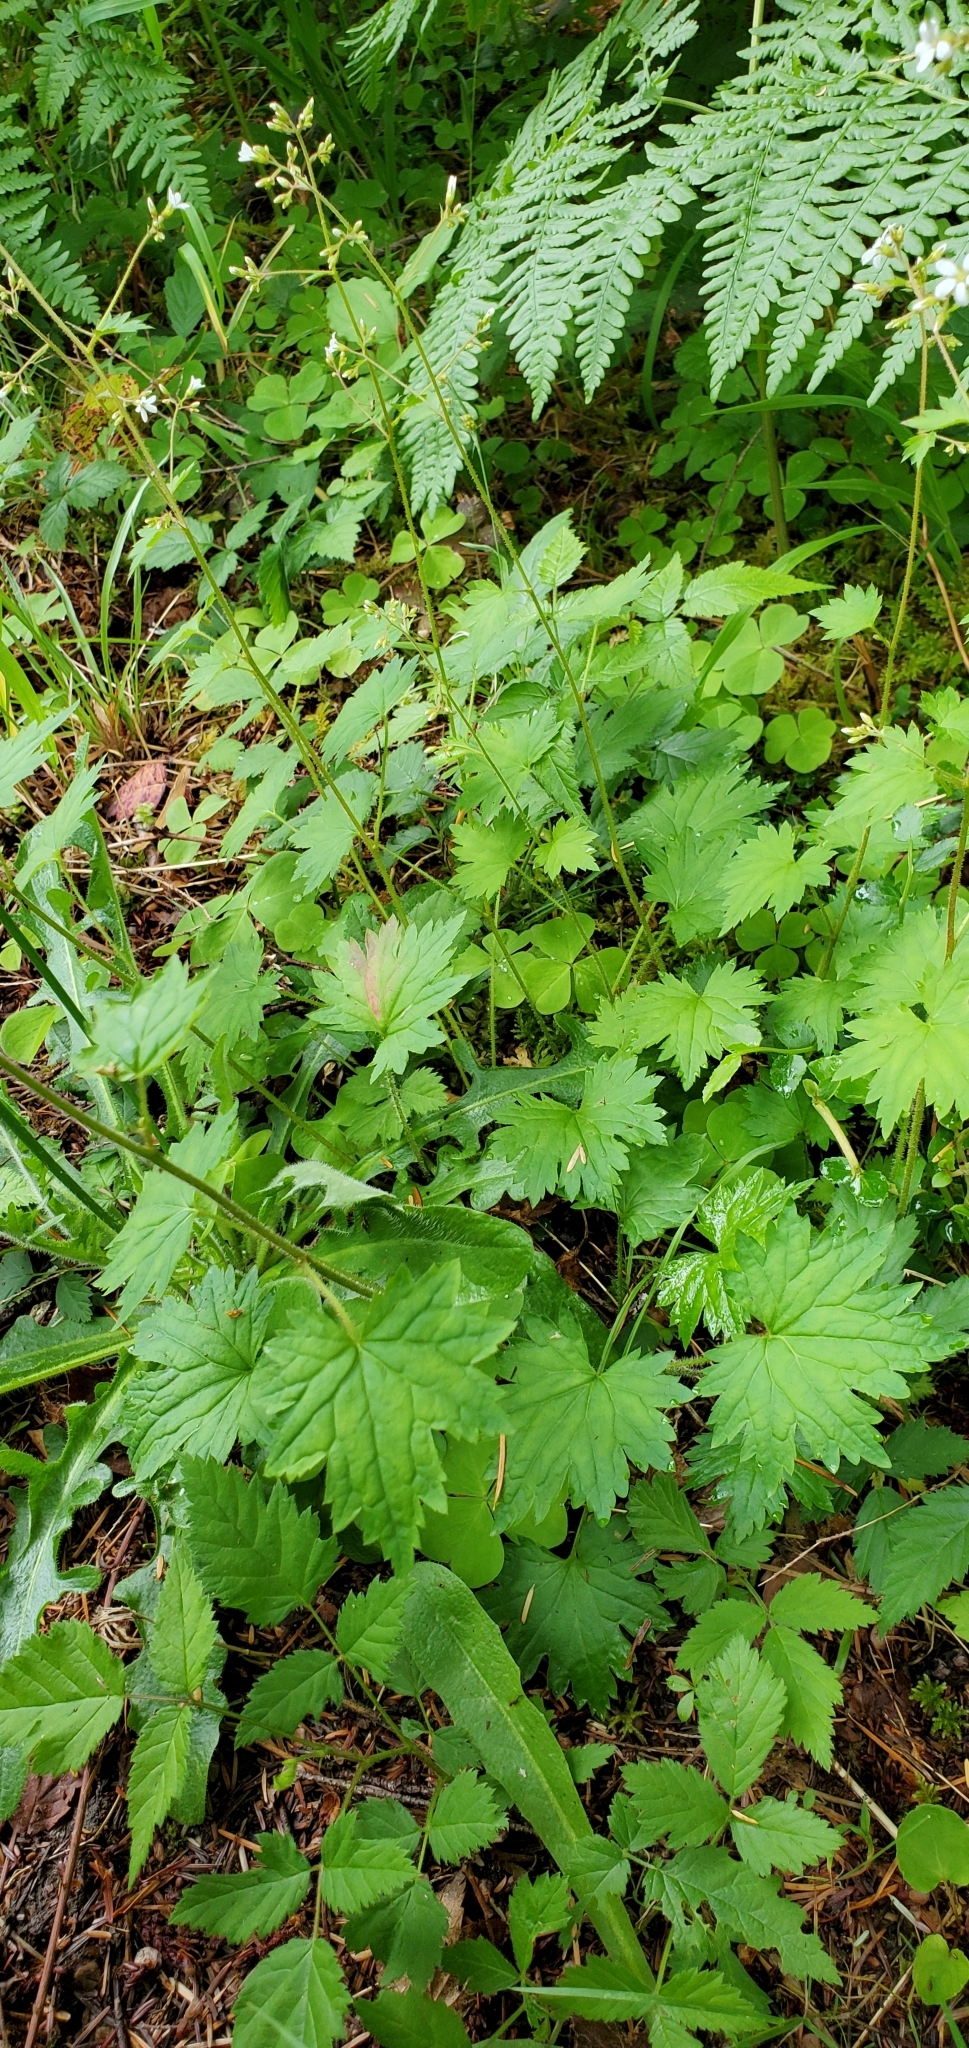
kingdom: Plantae
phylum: Tracheophyta
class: Magnoliopsida
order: Saxifragales
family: Saxifragaceae
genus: Boykinia
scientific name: Boykinia occidentalis
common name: Coast boykinia
